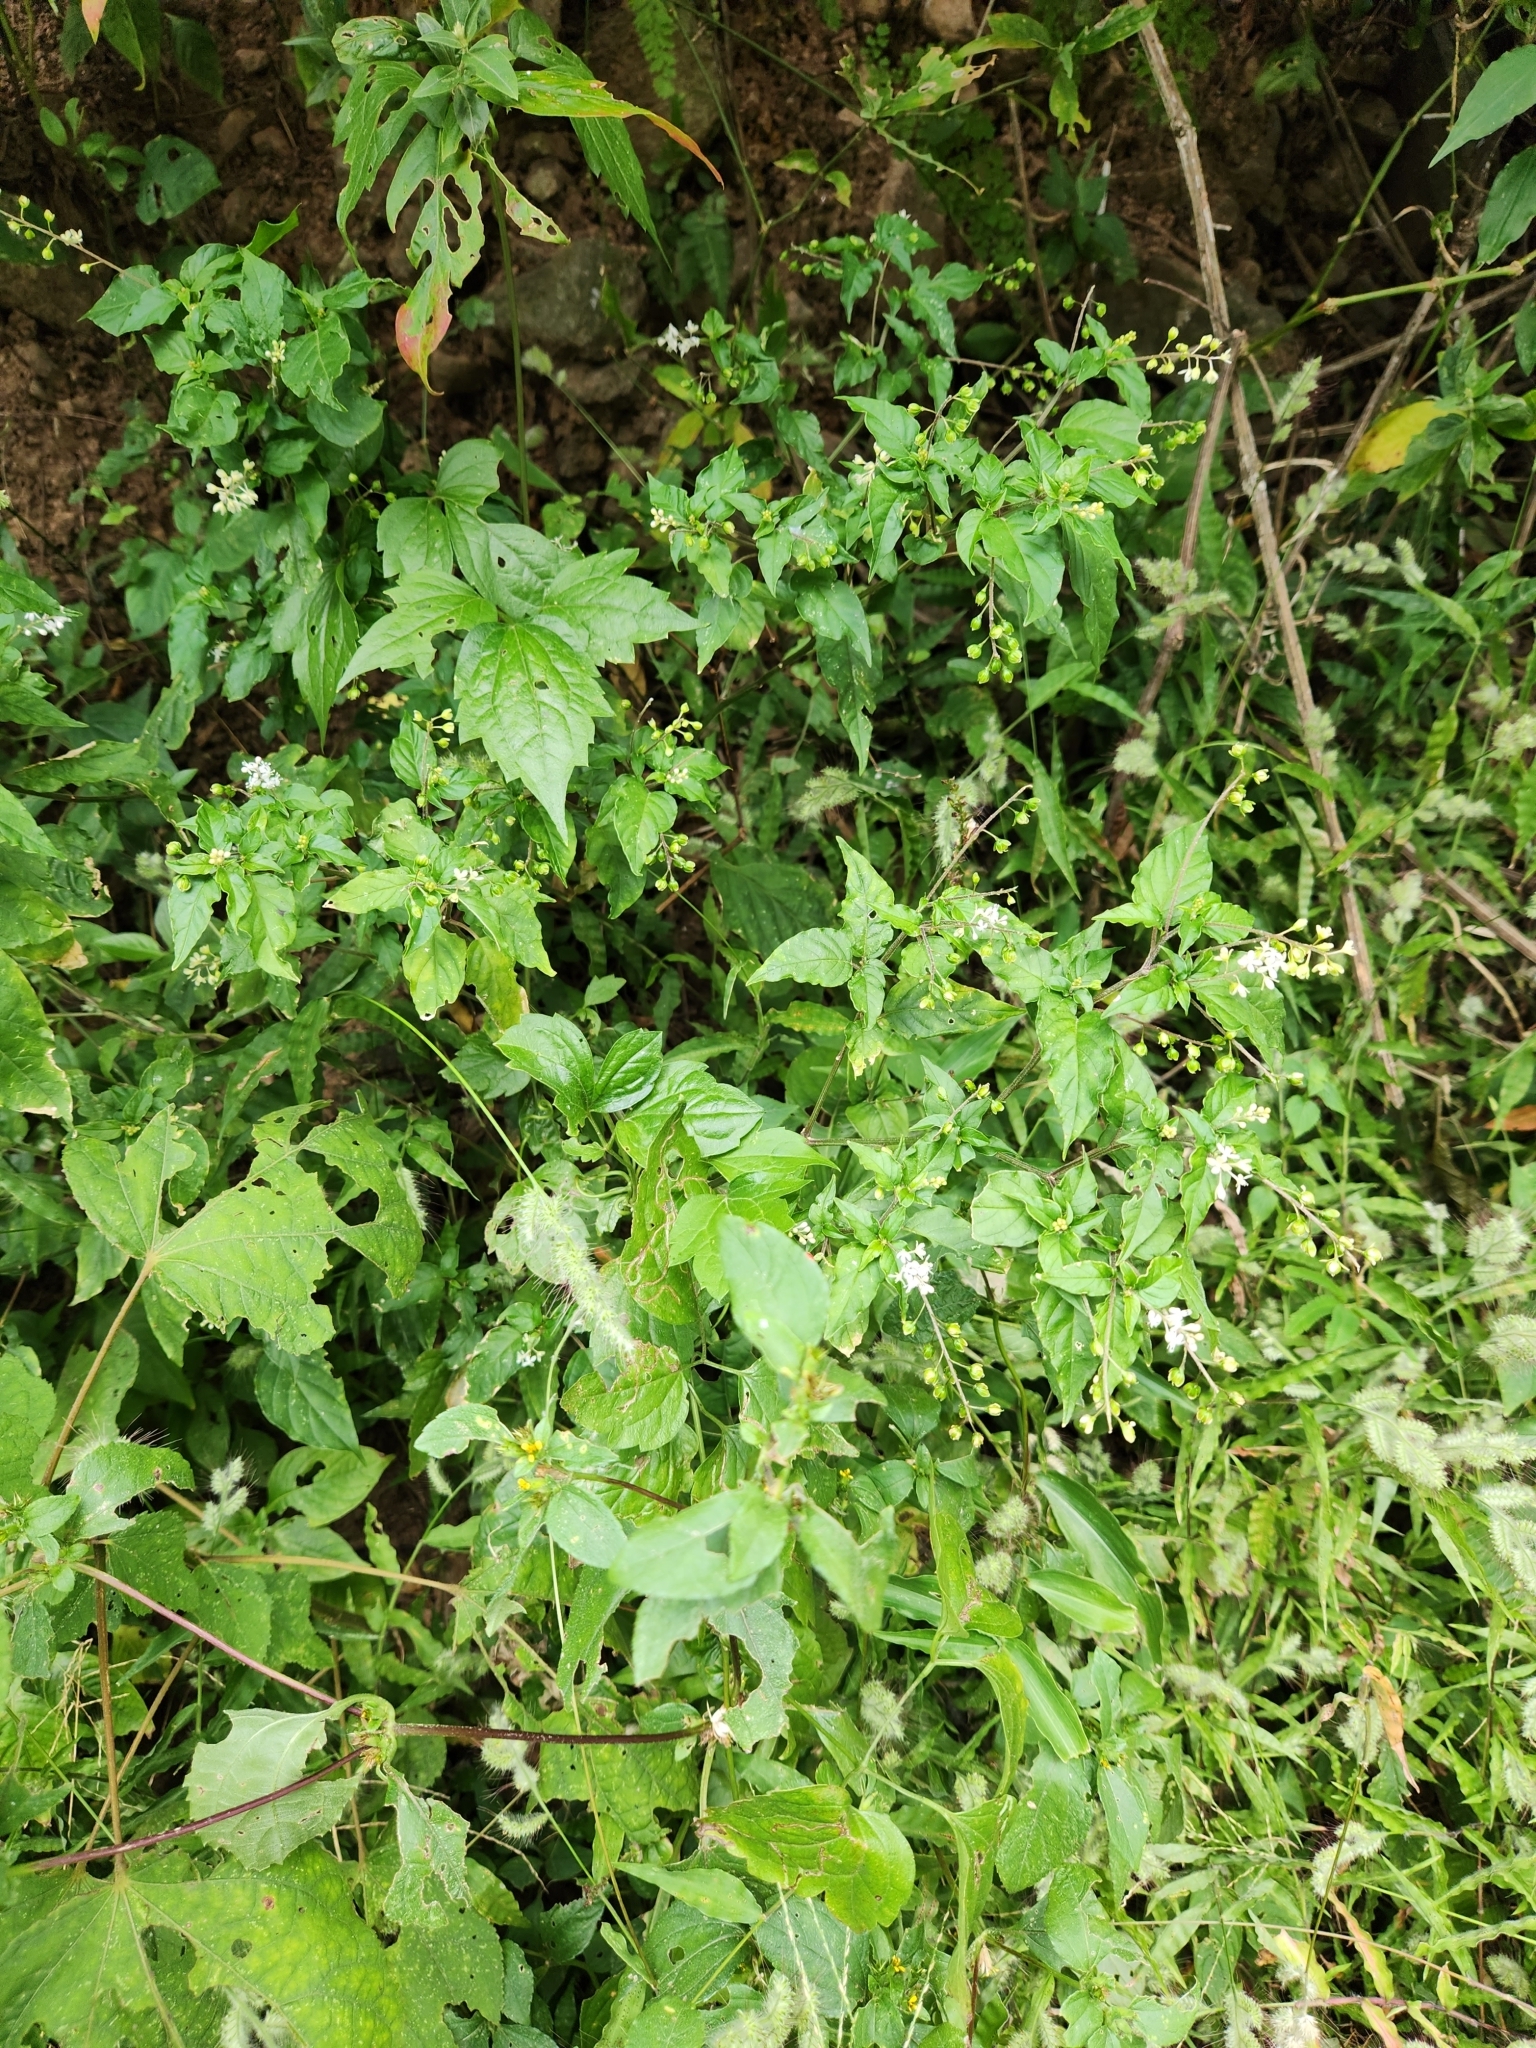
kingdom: Plantae
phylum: Tracheophyta
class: Magnoliopsida
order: Caryophyllales
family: Phytolaccaceae
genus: Rivina
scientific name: Rivina humilis
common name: Rougeplant
